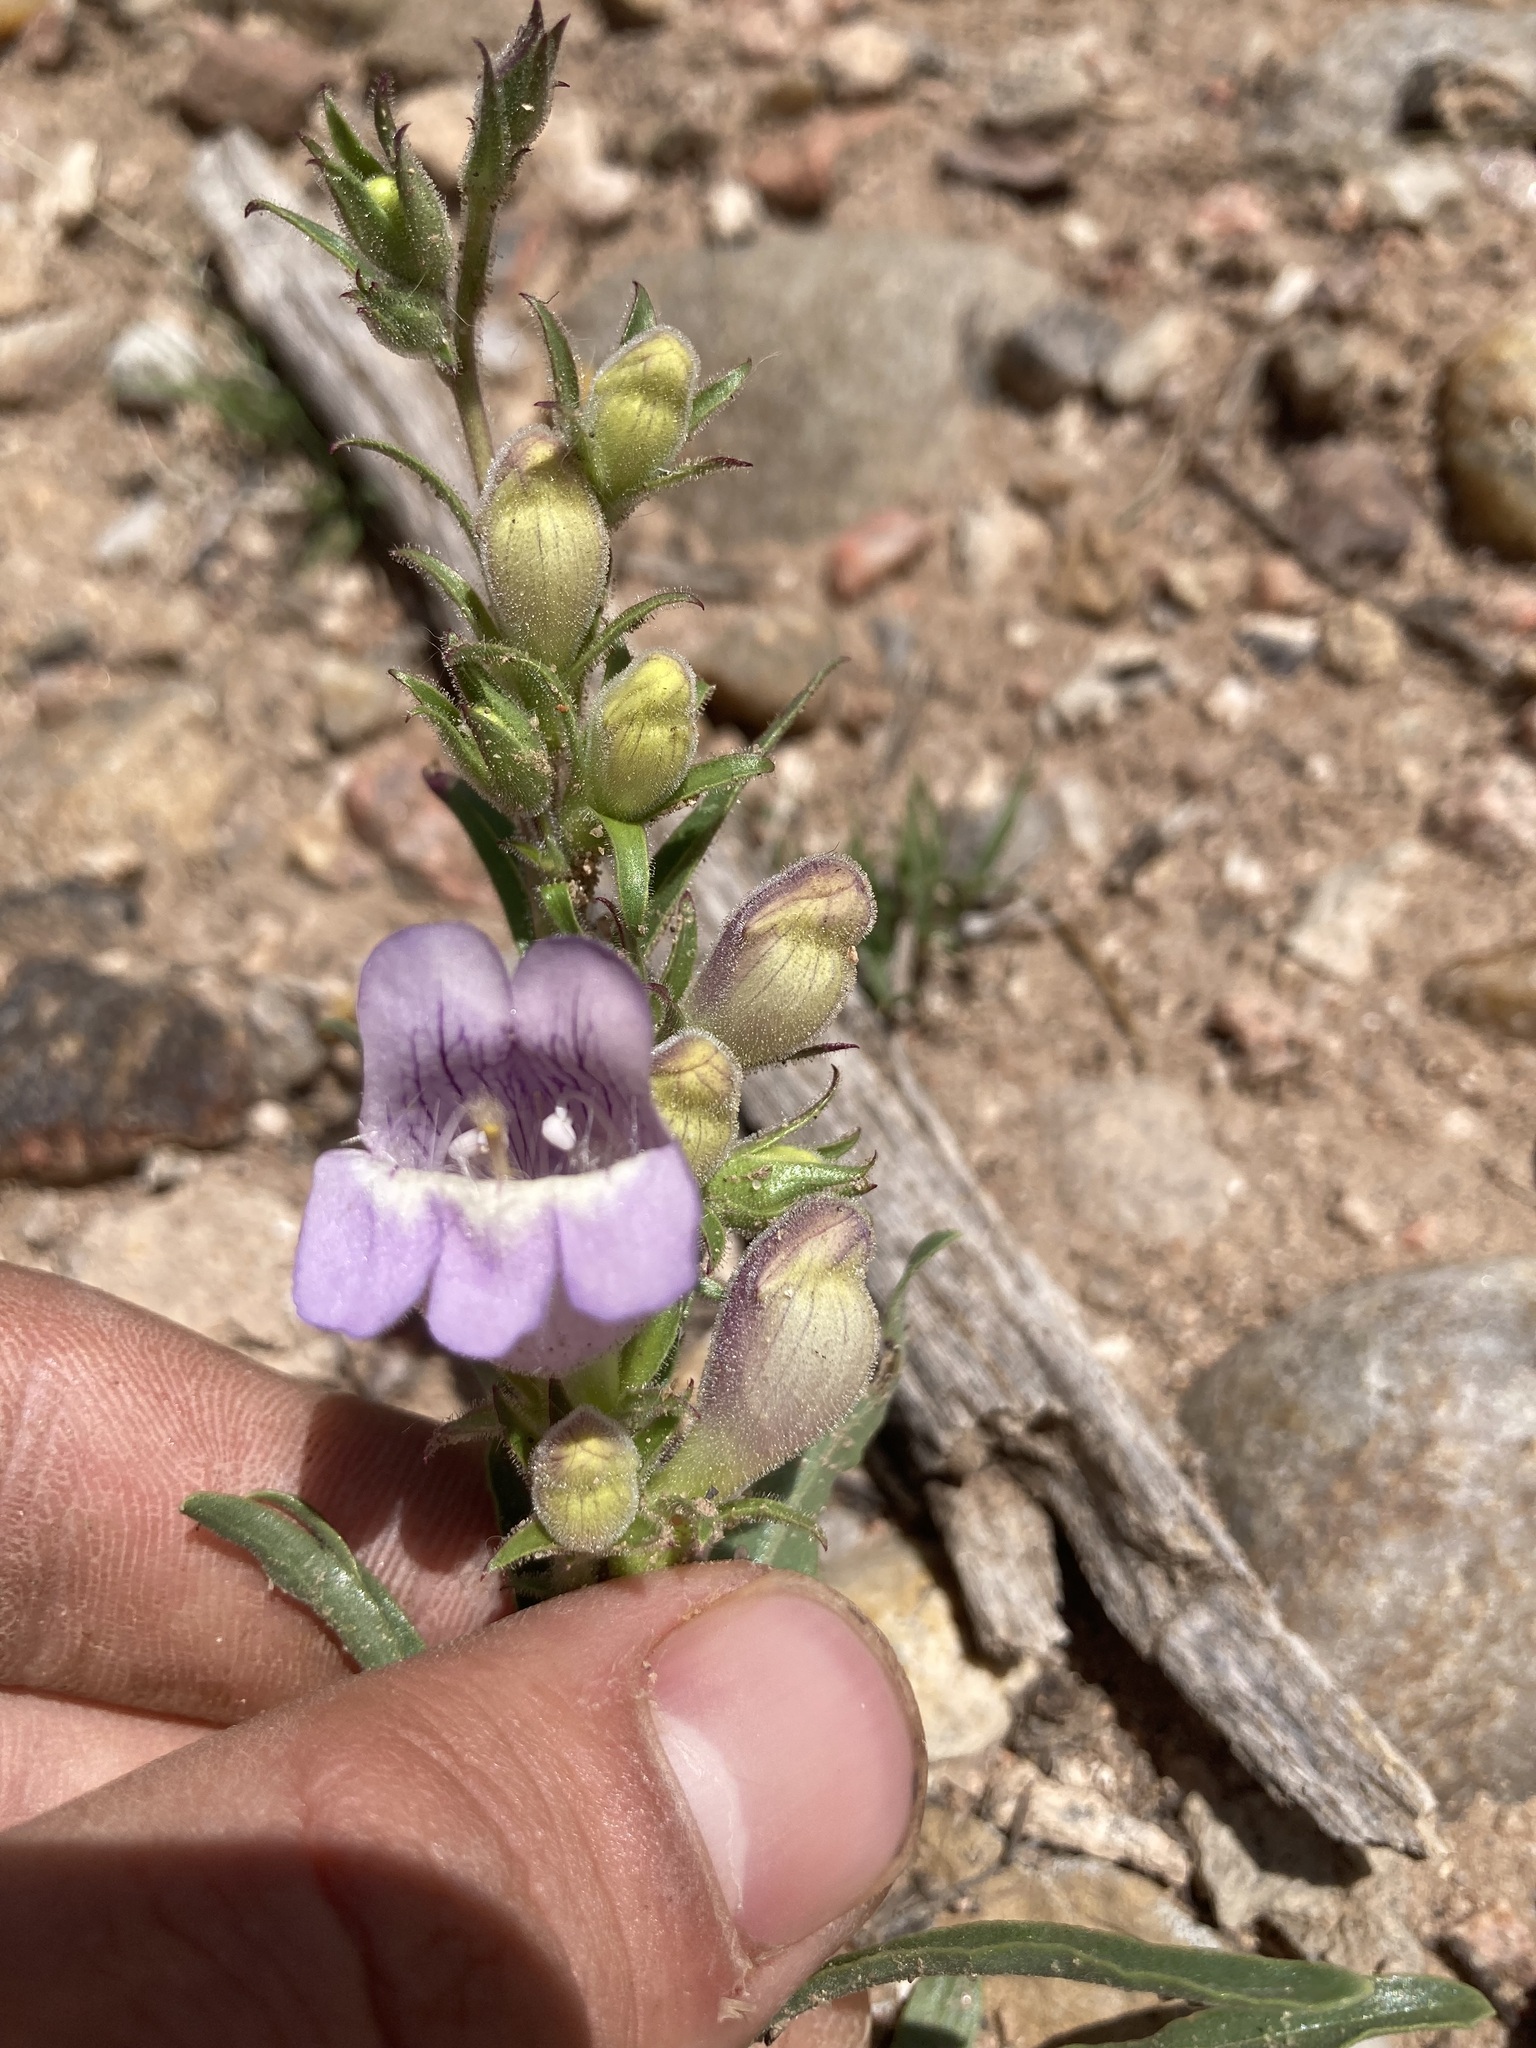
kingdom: Plantae
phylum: Tracheophyta
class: Magnoliopsida
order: Lamiales
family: Plantaginaceae
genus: Penstemon
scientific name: Penstemon jamesii
